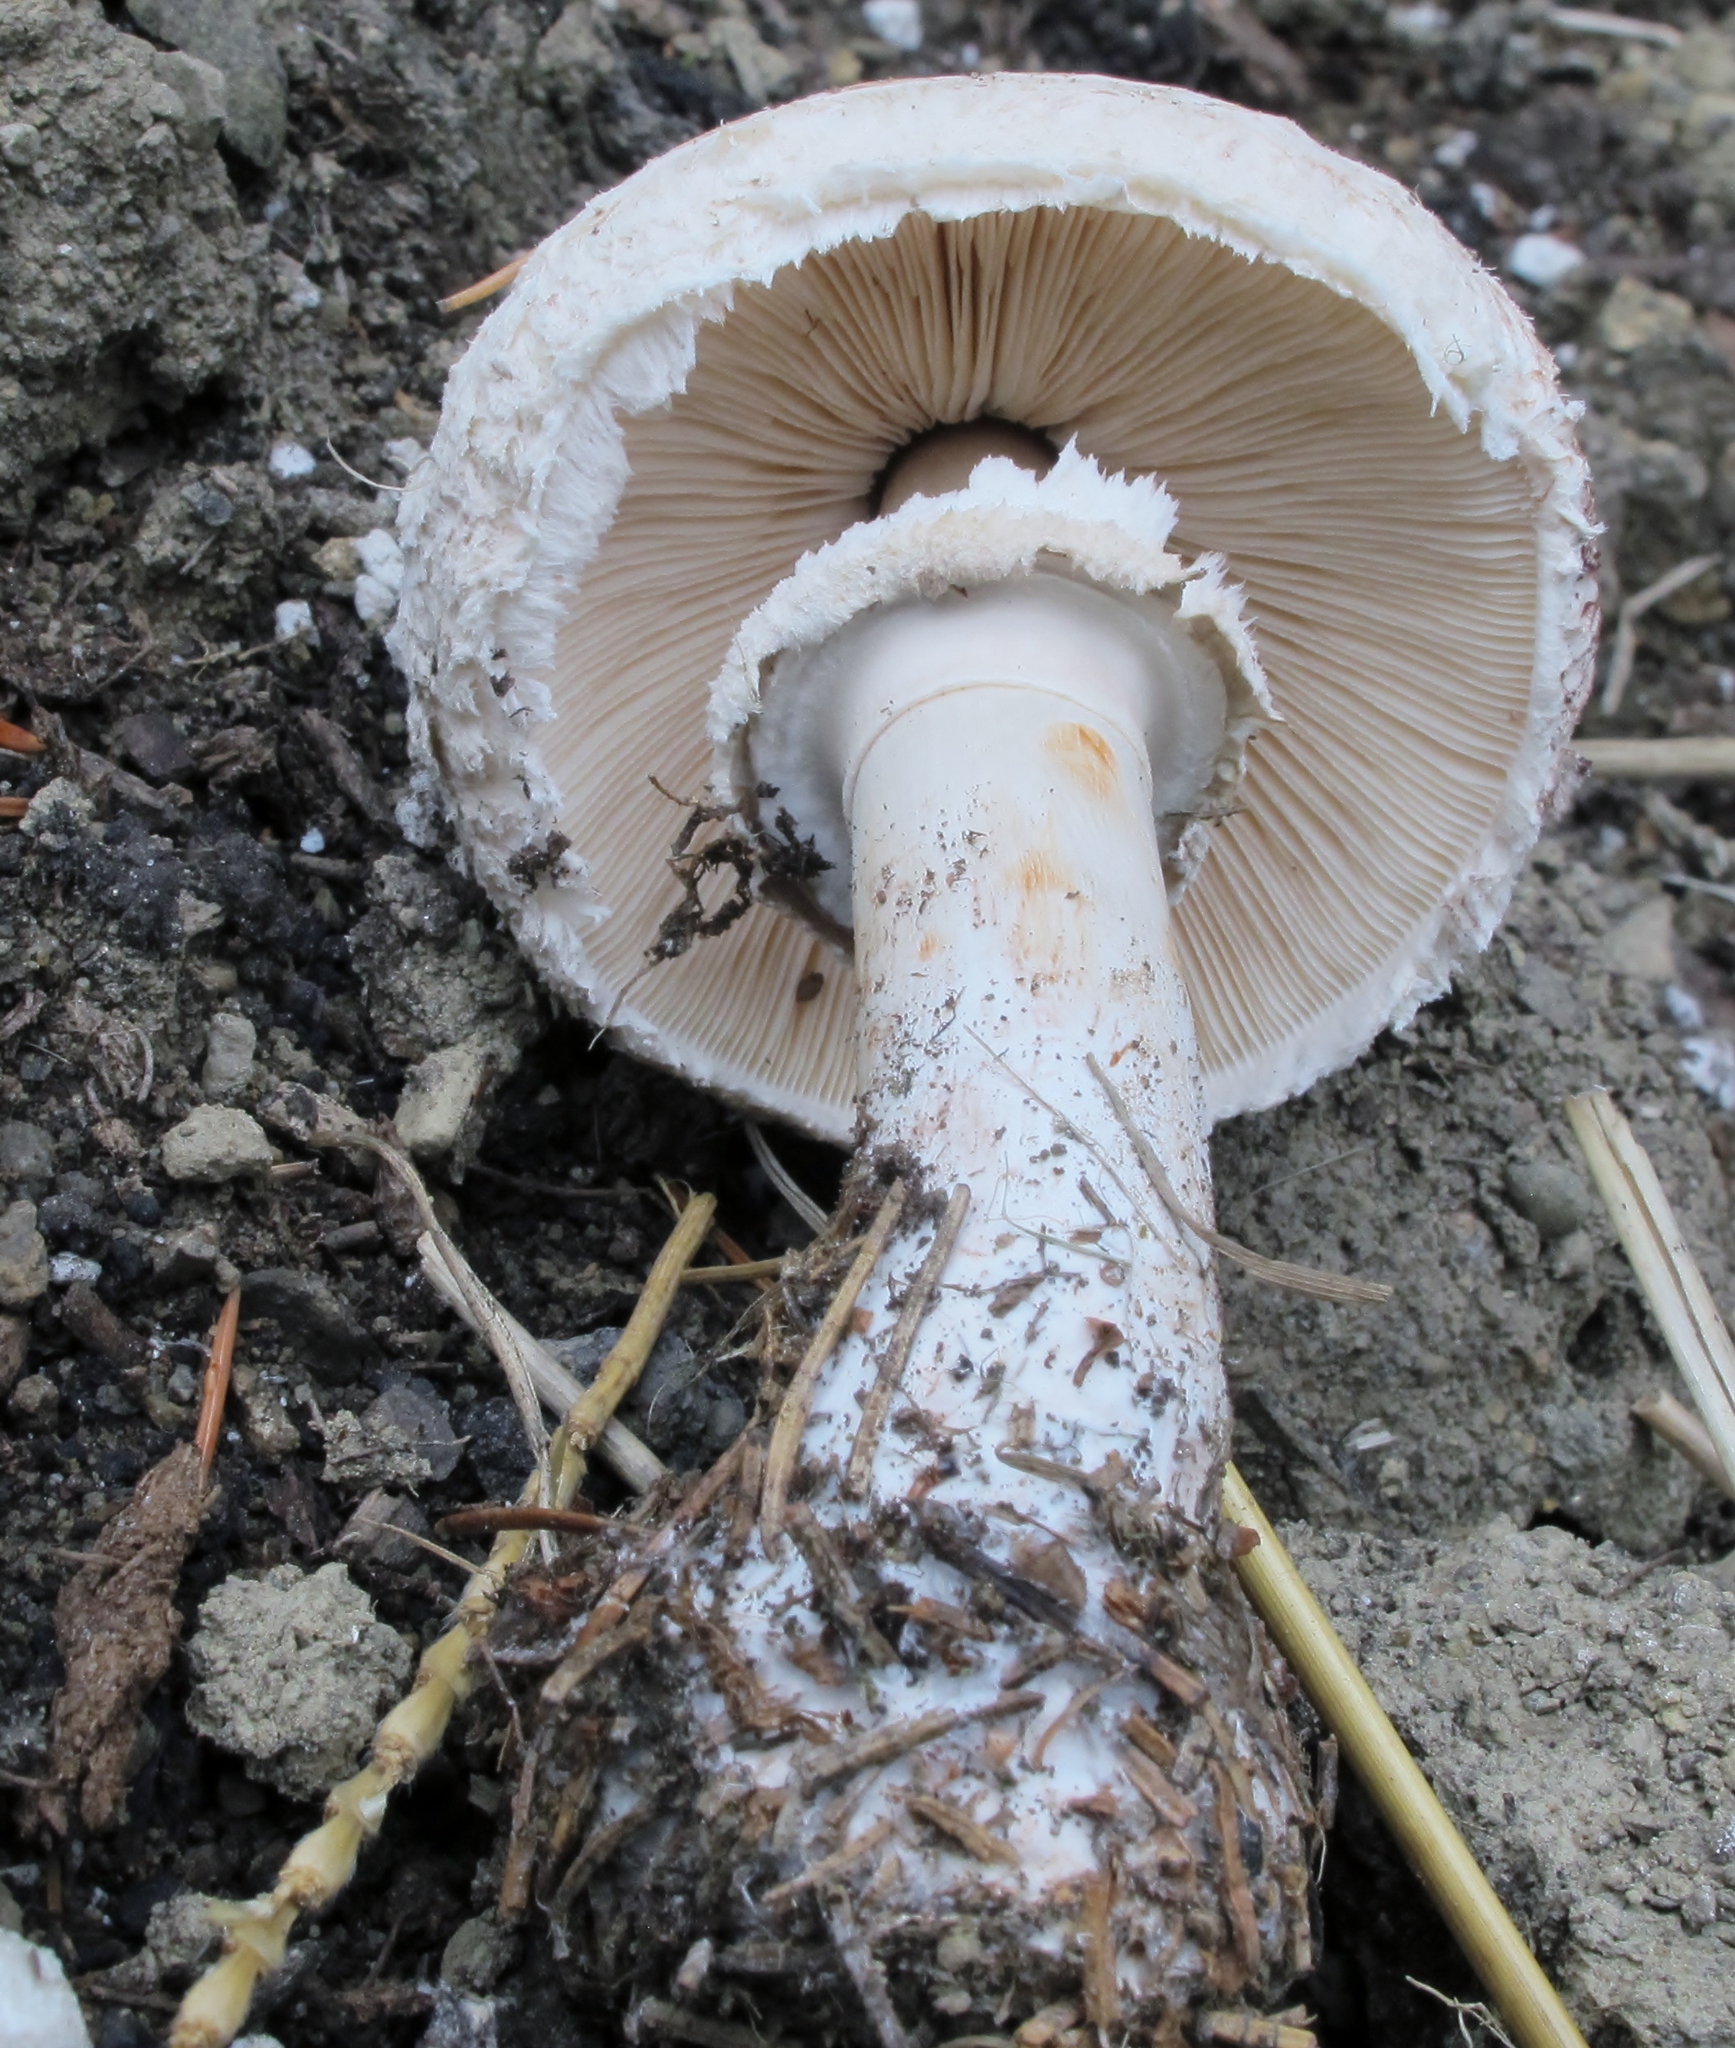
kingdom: Fungi
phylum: Basidiomycota
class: Agaricomycetes
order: Agaricales
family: Agaricaceae
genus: Chlorophyllum
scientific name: Chlorophyllum rhacodes
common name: Shaggy parasol
